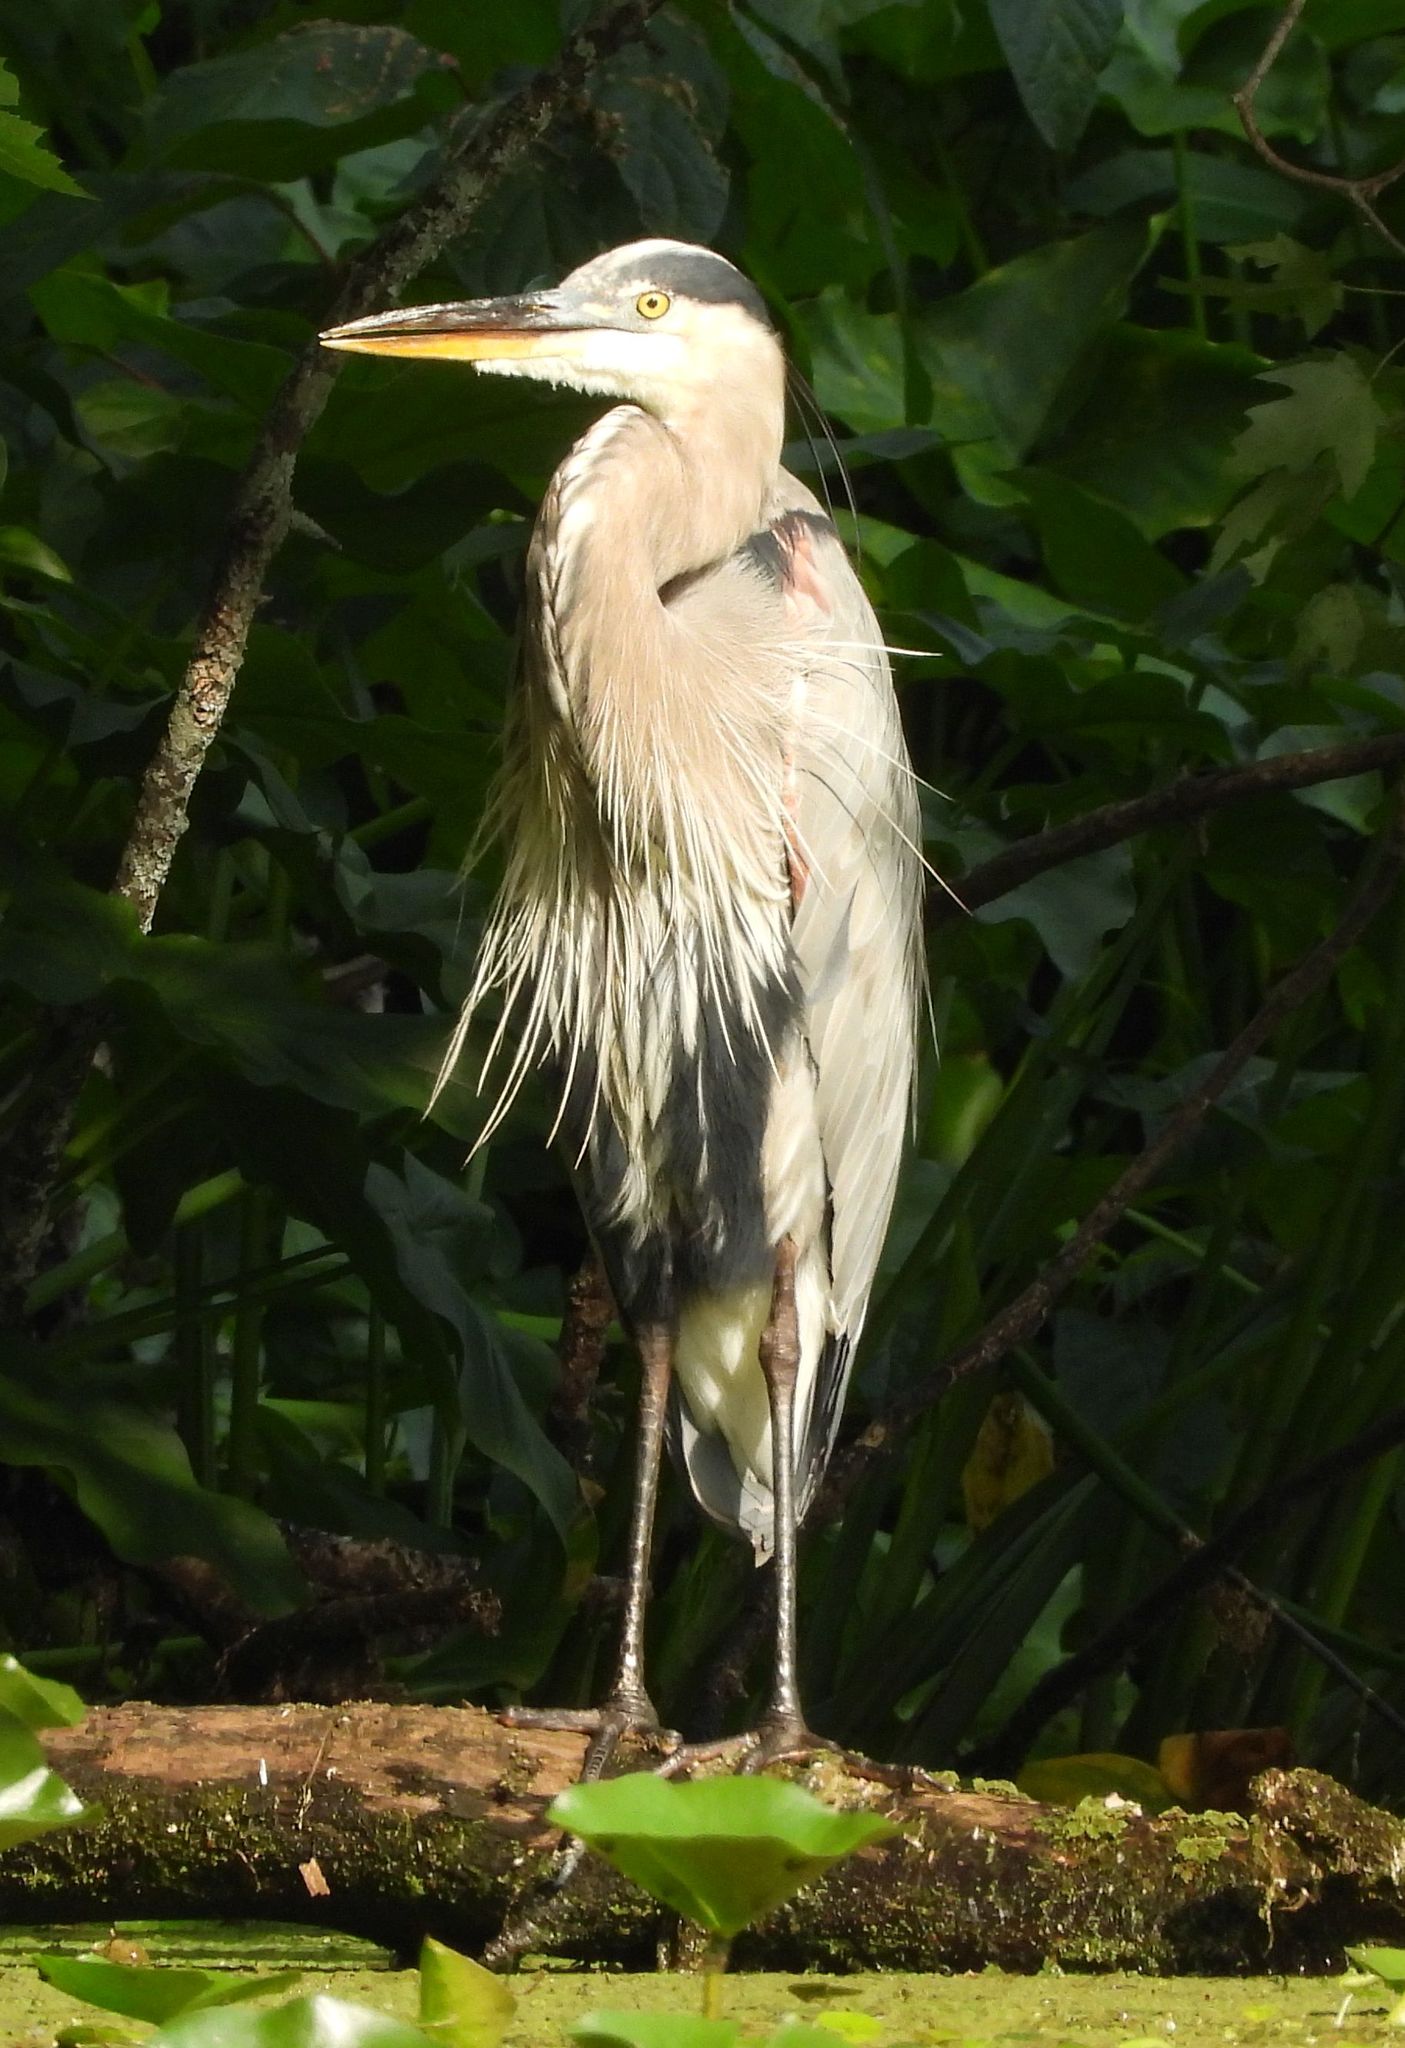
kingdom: Animalia
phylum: Chordata
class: Aves
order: Pelecaniformes
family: Ardeidae
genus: Ardea
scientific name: Ardea herodias
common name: Great blue heron
